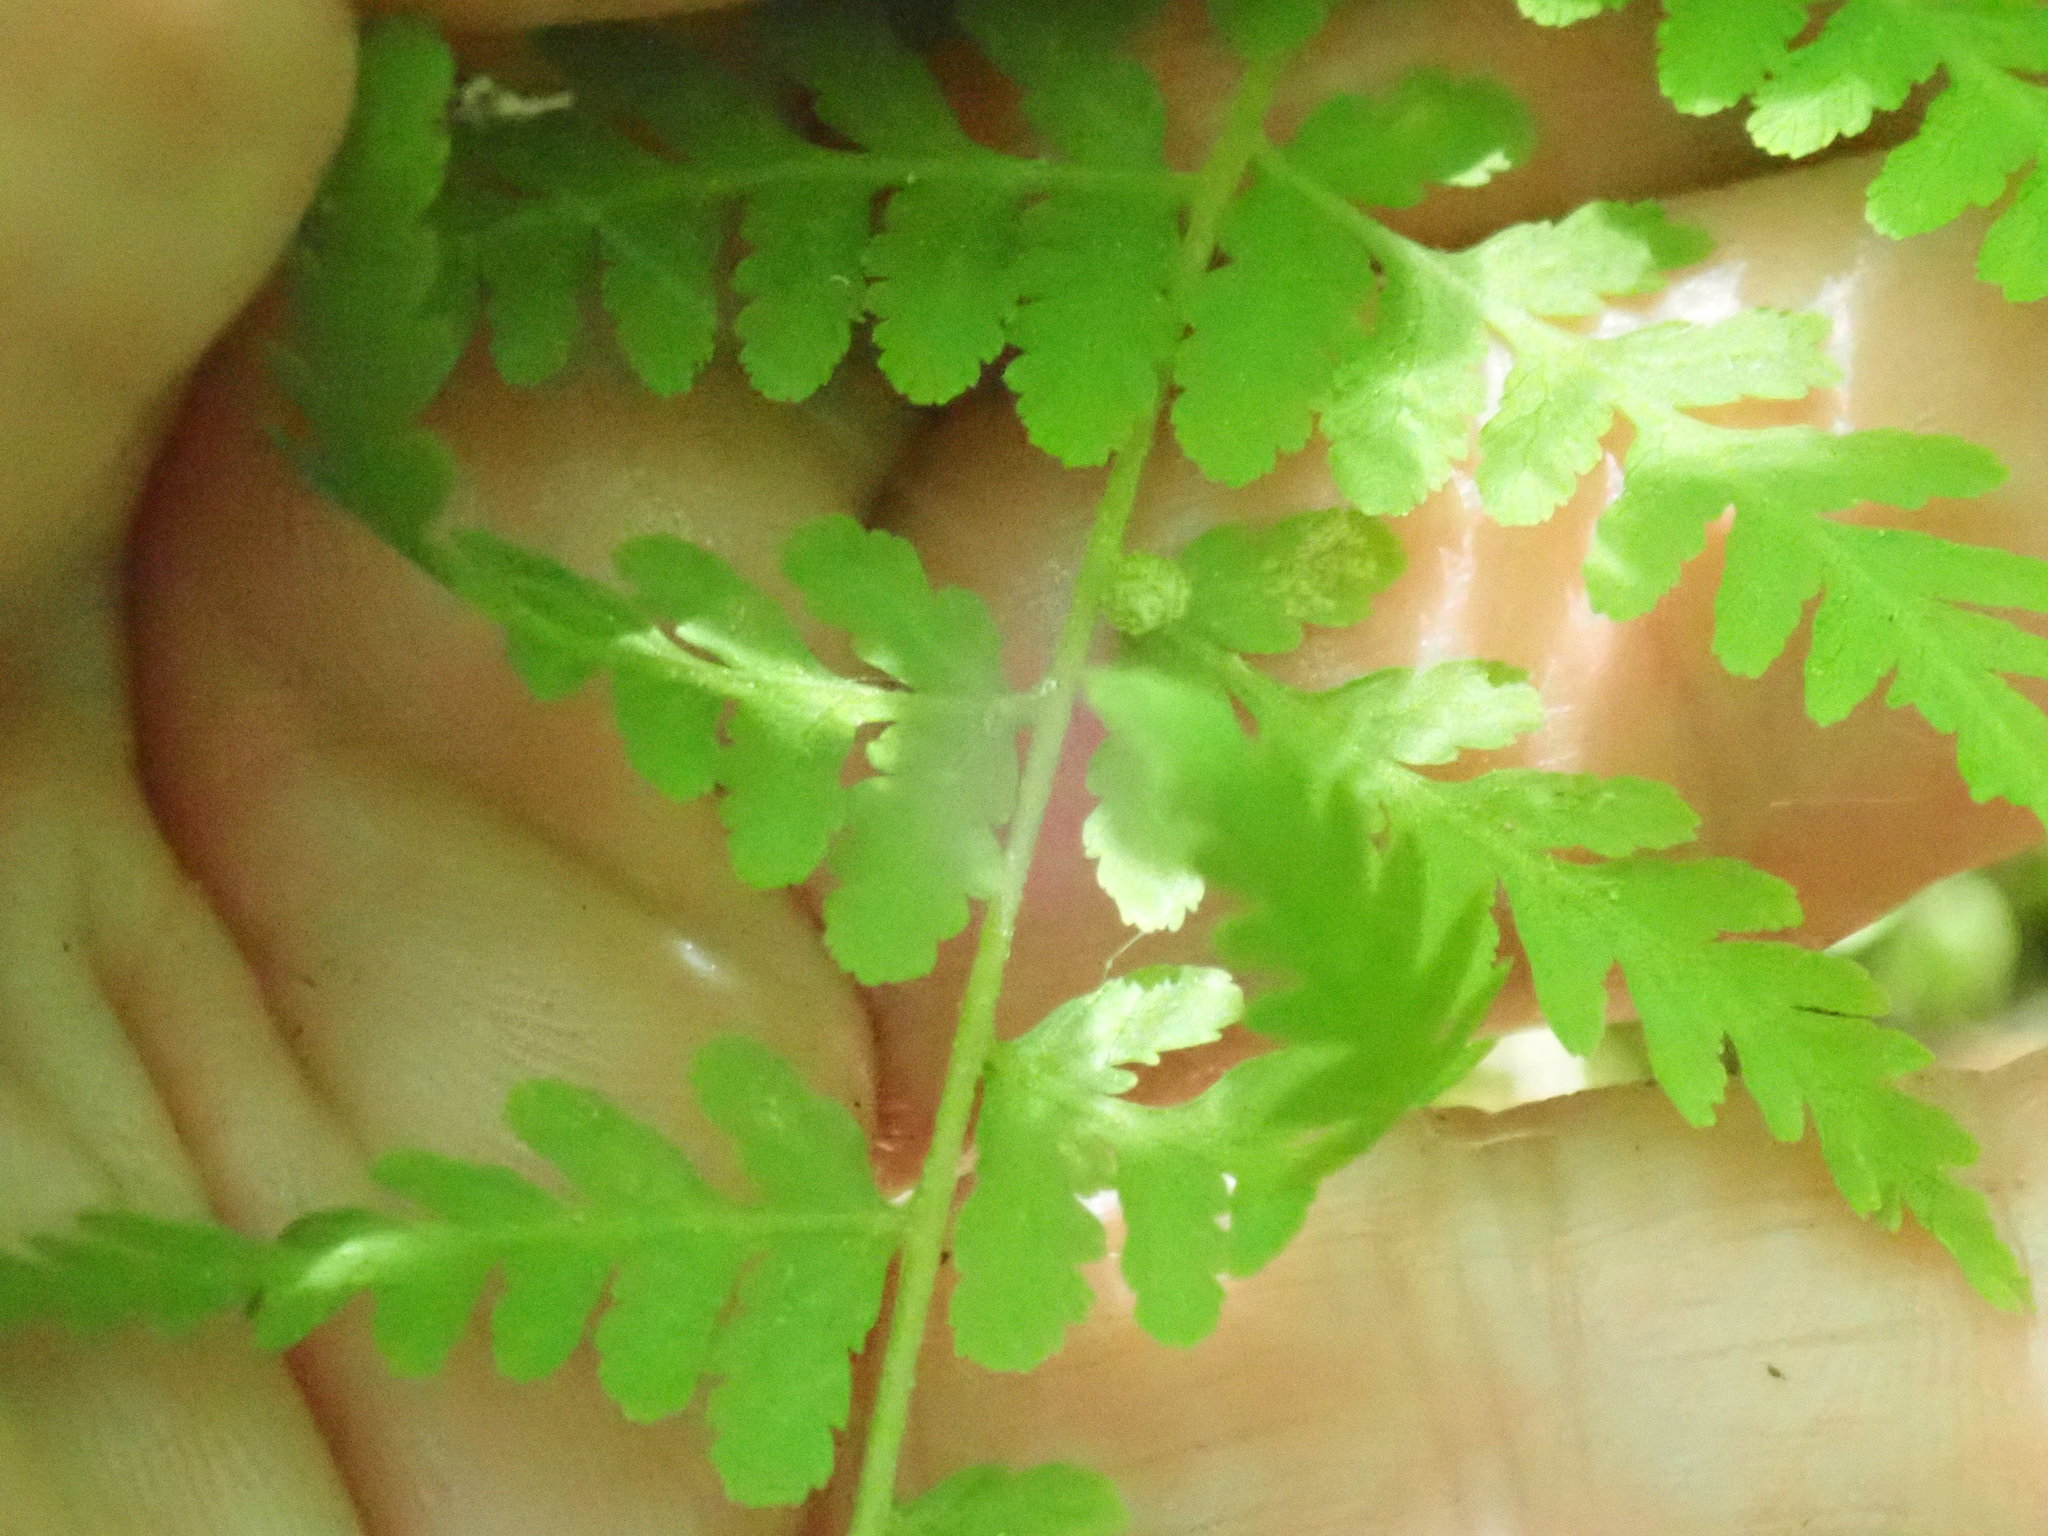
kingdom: Plantae
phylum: Tracheophyta
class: Polypodiopsida
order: Polypodiales
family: Cystopteridaceae
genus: Cystopteris
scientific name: Cystopteris bulbifera
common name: Bulblet bladder fern
